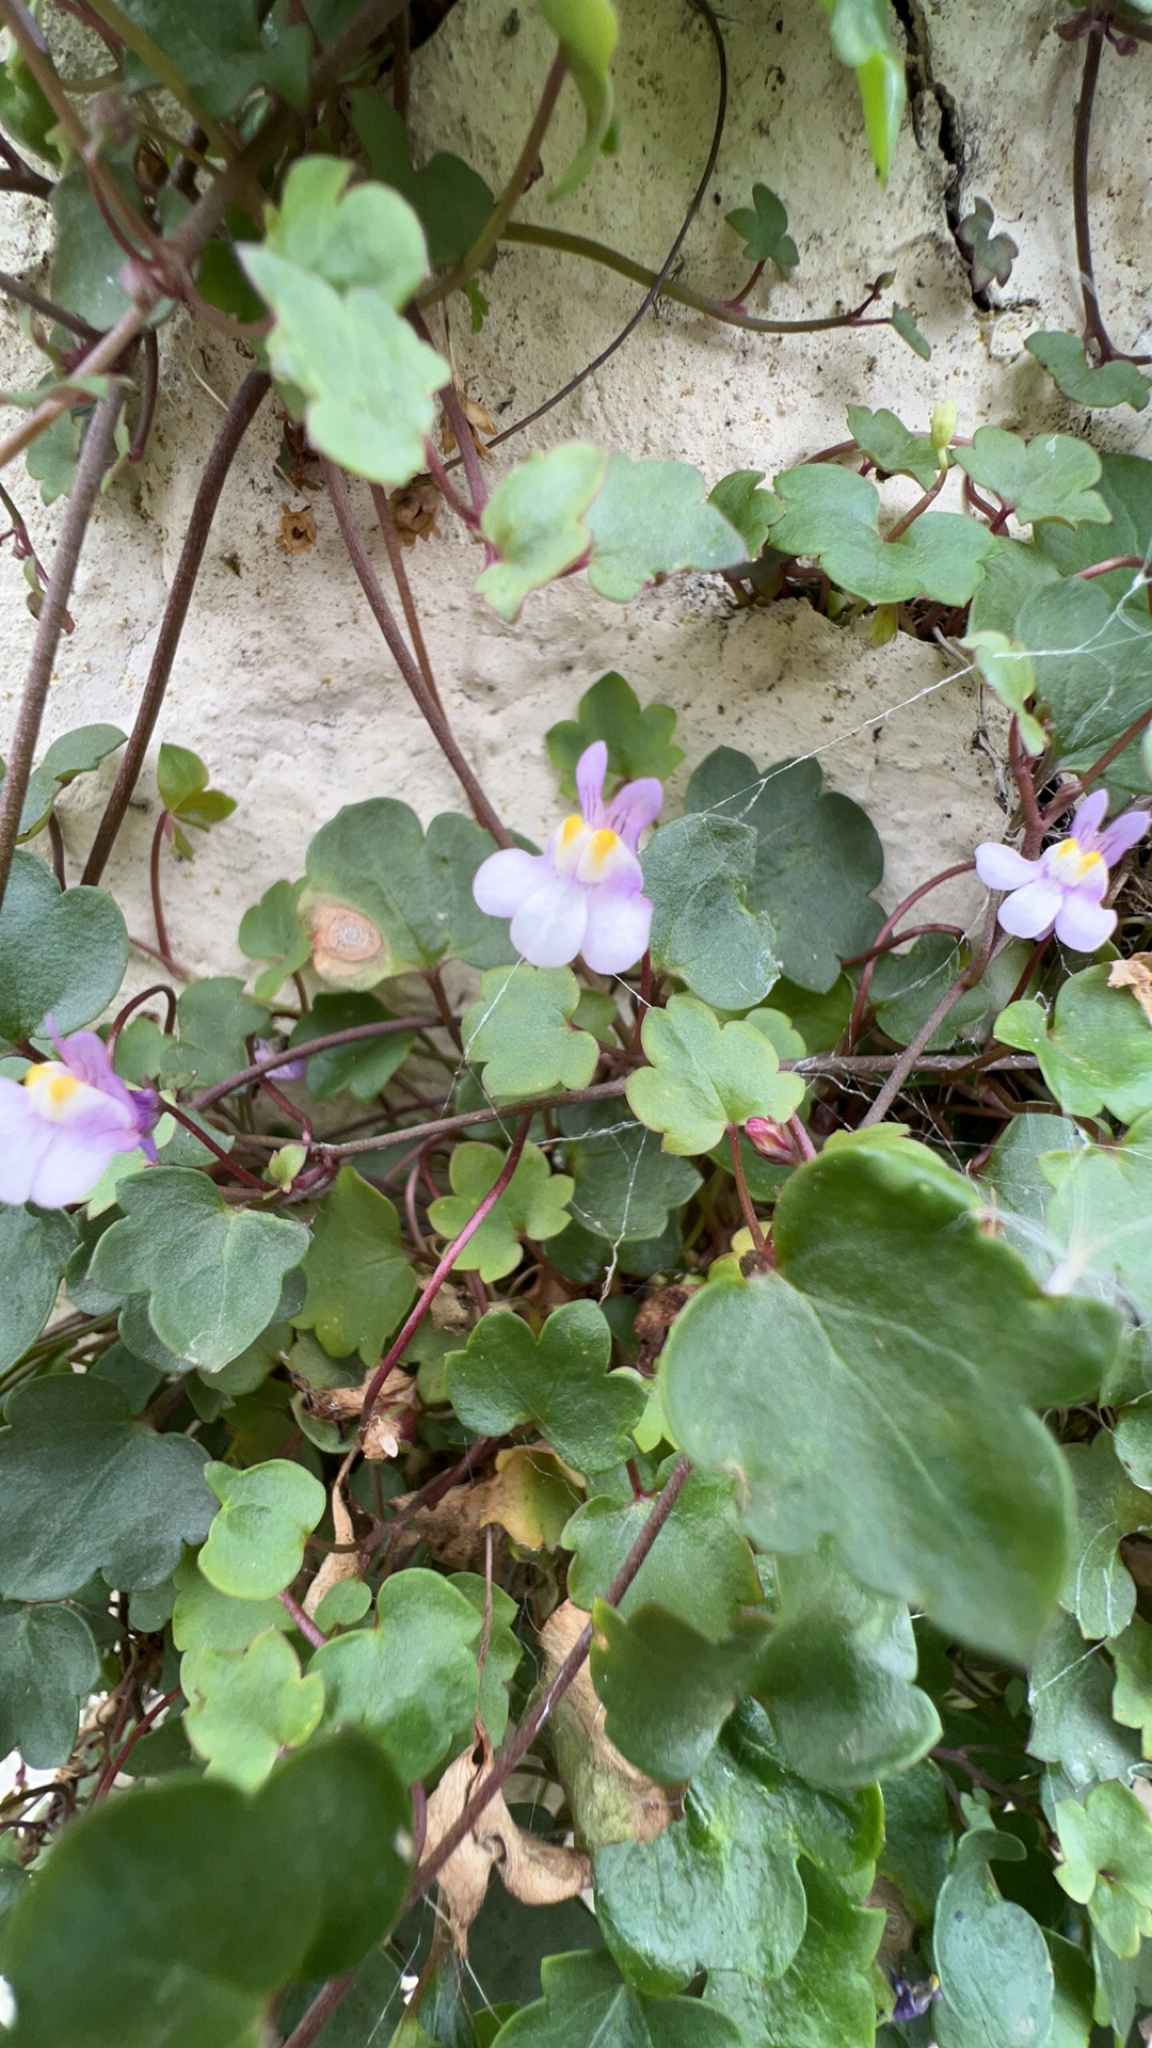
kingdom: Plantae
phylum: Tracheophyta
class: Magnoliopsida
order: Lamiales
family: Plantaginaceae
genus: Cymbalaria
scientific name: Cymbalaria muralis
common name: Ivy-leaved toadflax
